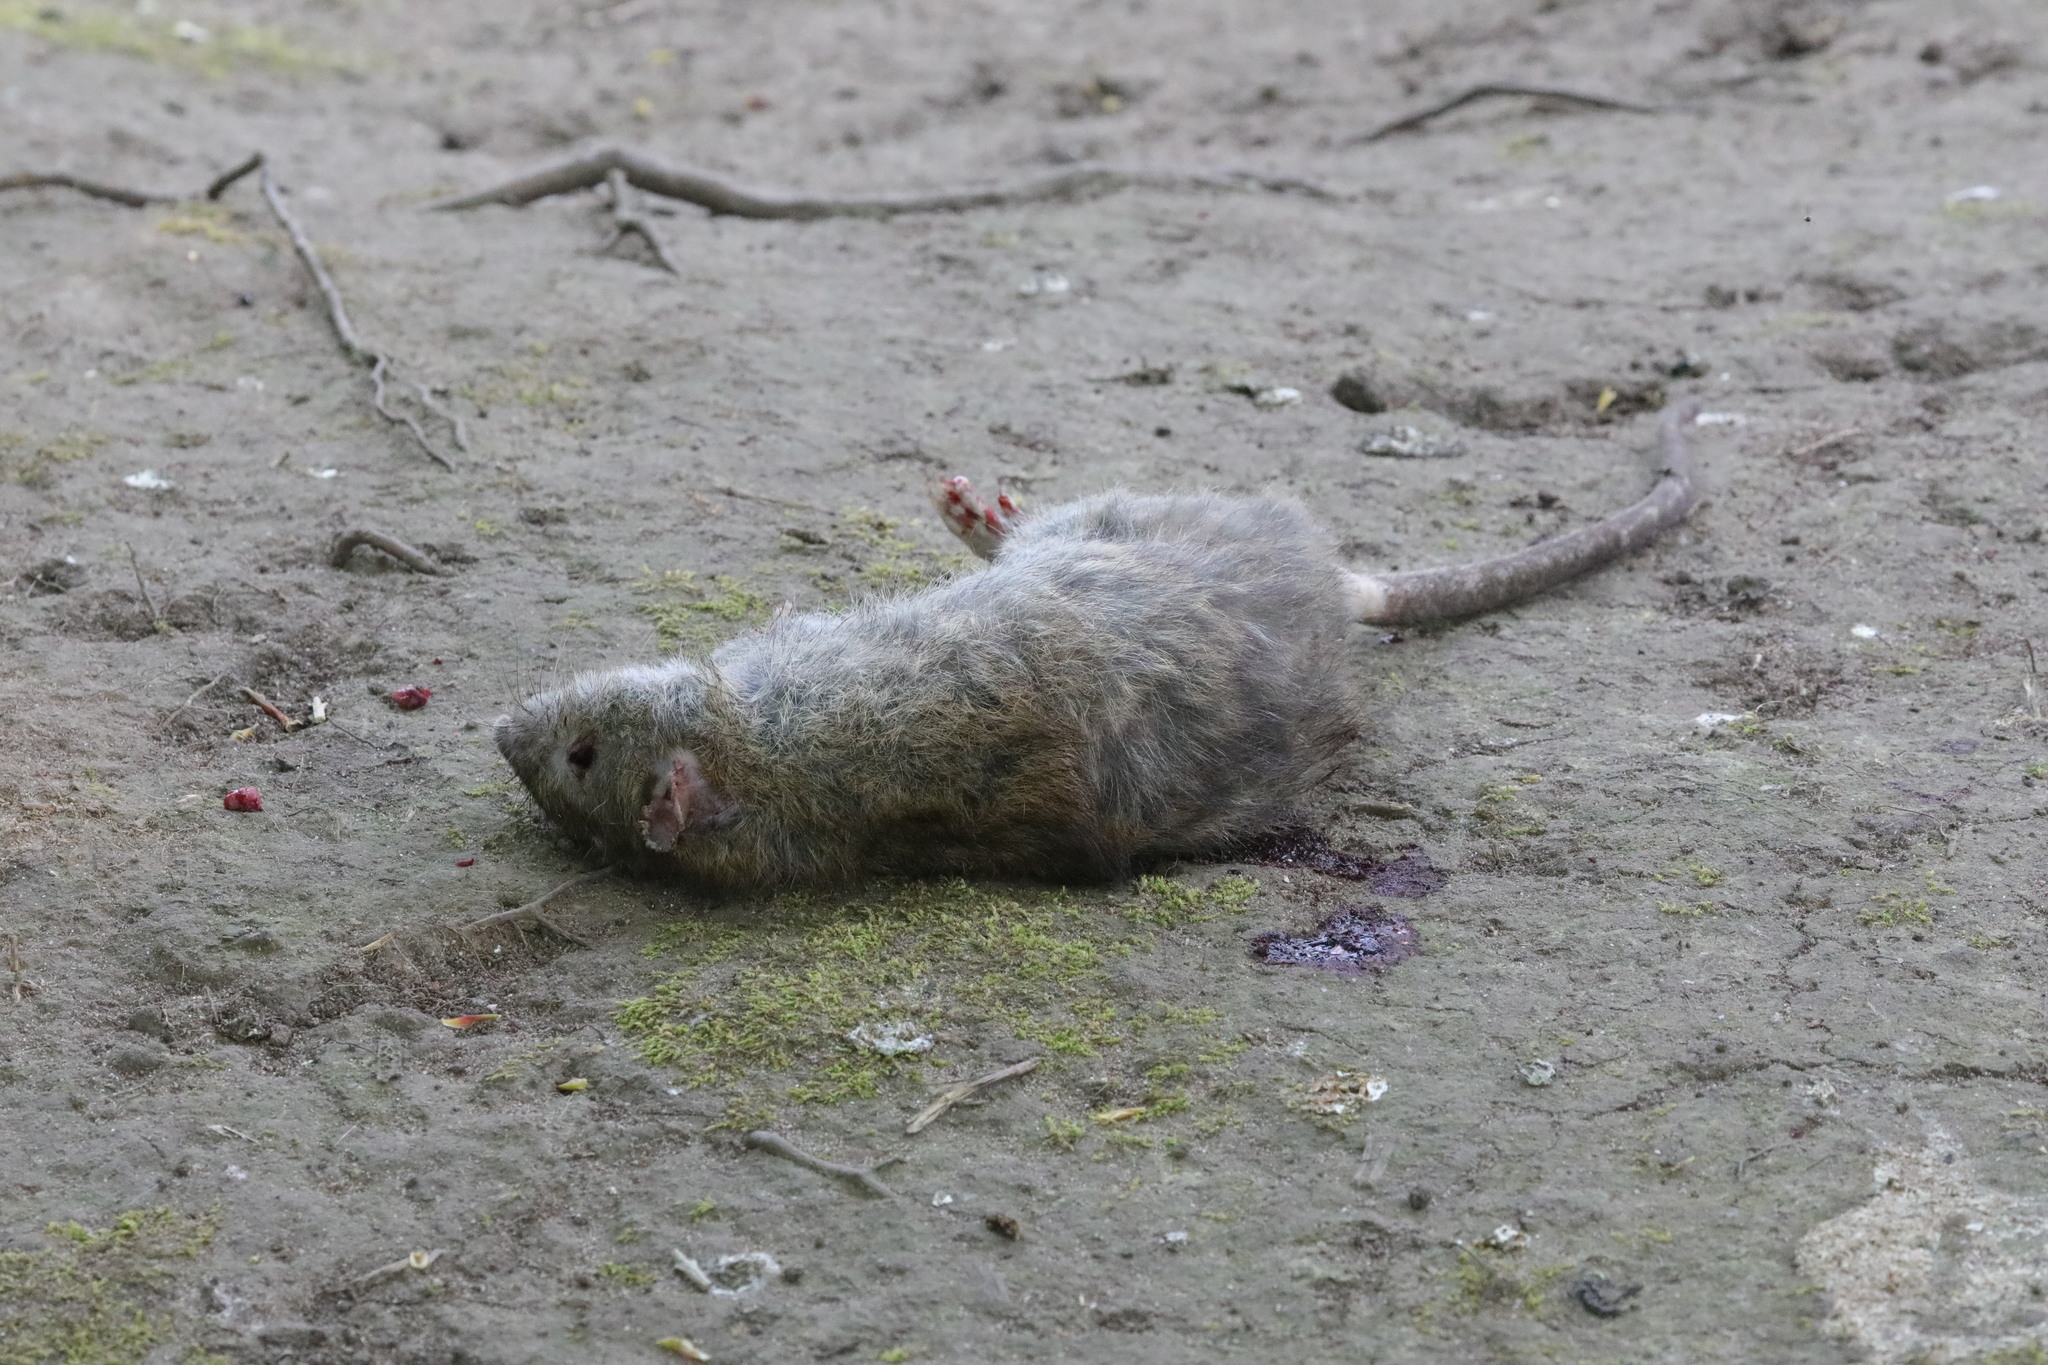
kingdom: Animalia
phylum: Chordata
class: Mammalia
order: Rodentia
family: Muridae
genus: Rattus
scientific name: Rattus norvegicus
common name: Brown rat
